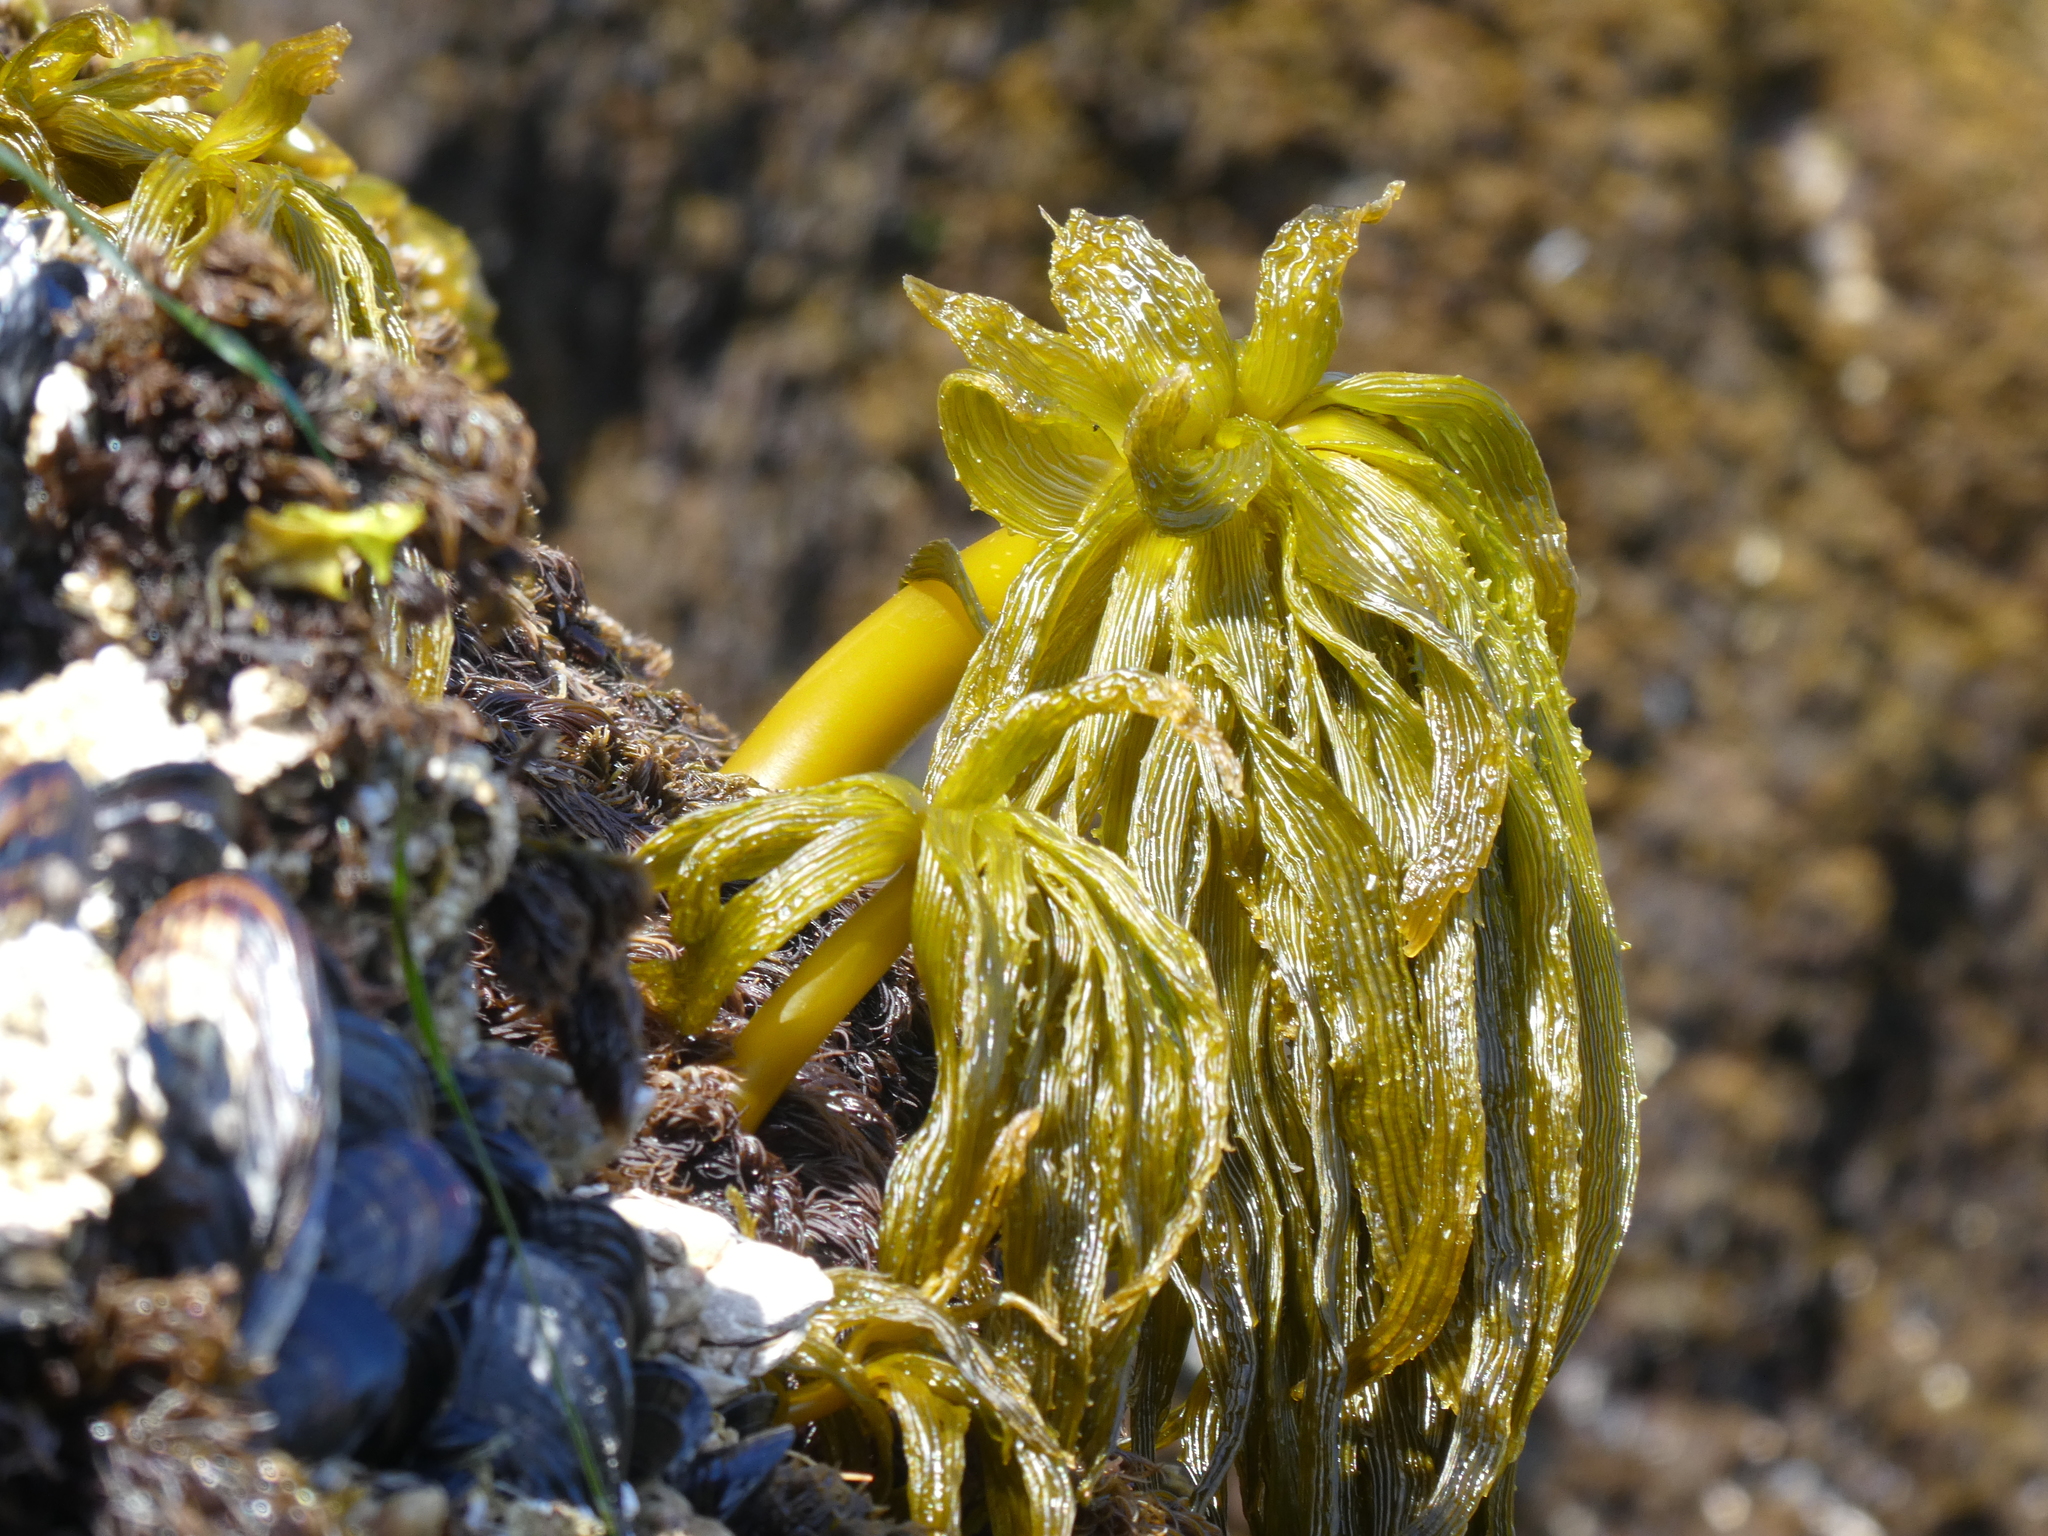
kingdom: Chromista
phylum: Ochrophyta
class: Phaeophyceae
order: Laminariales
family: Laminariaceae
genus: Postelsia
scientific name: Postelsia palmiformis
